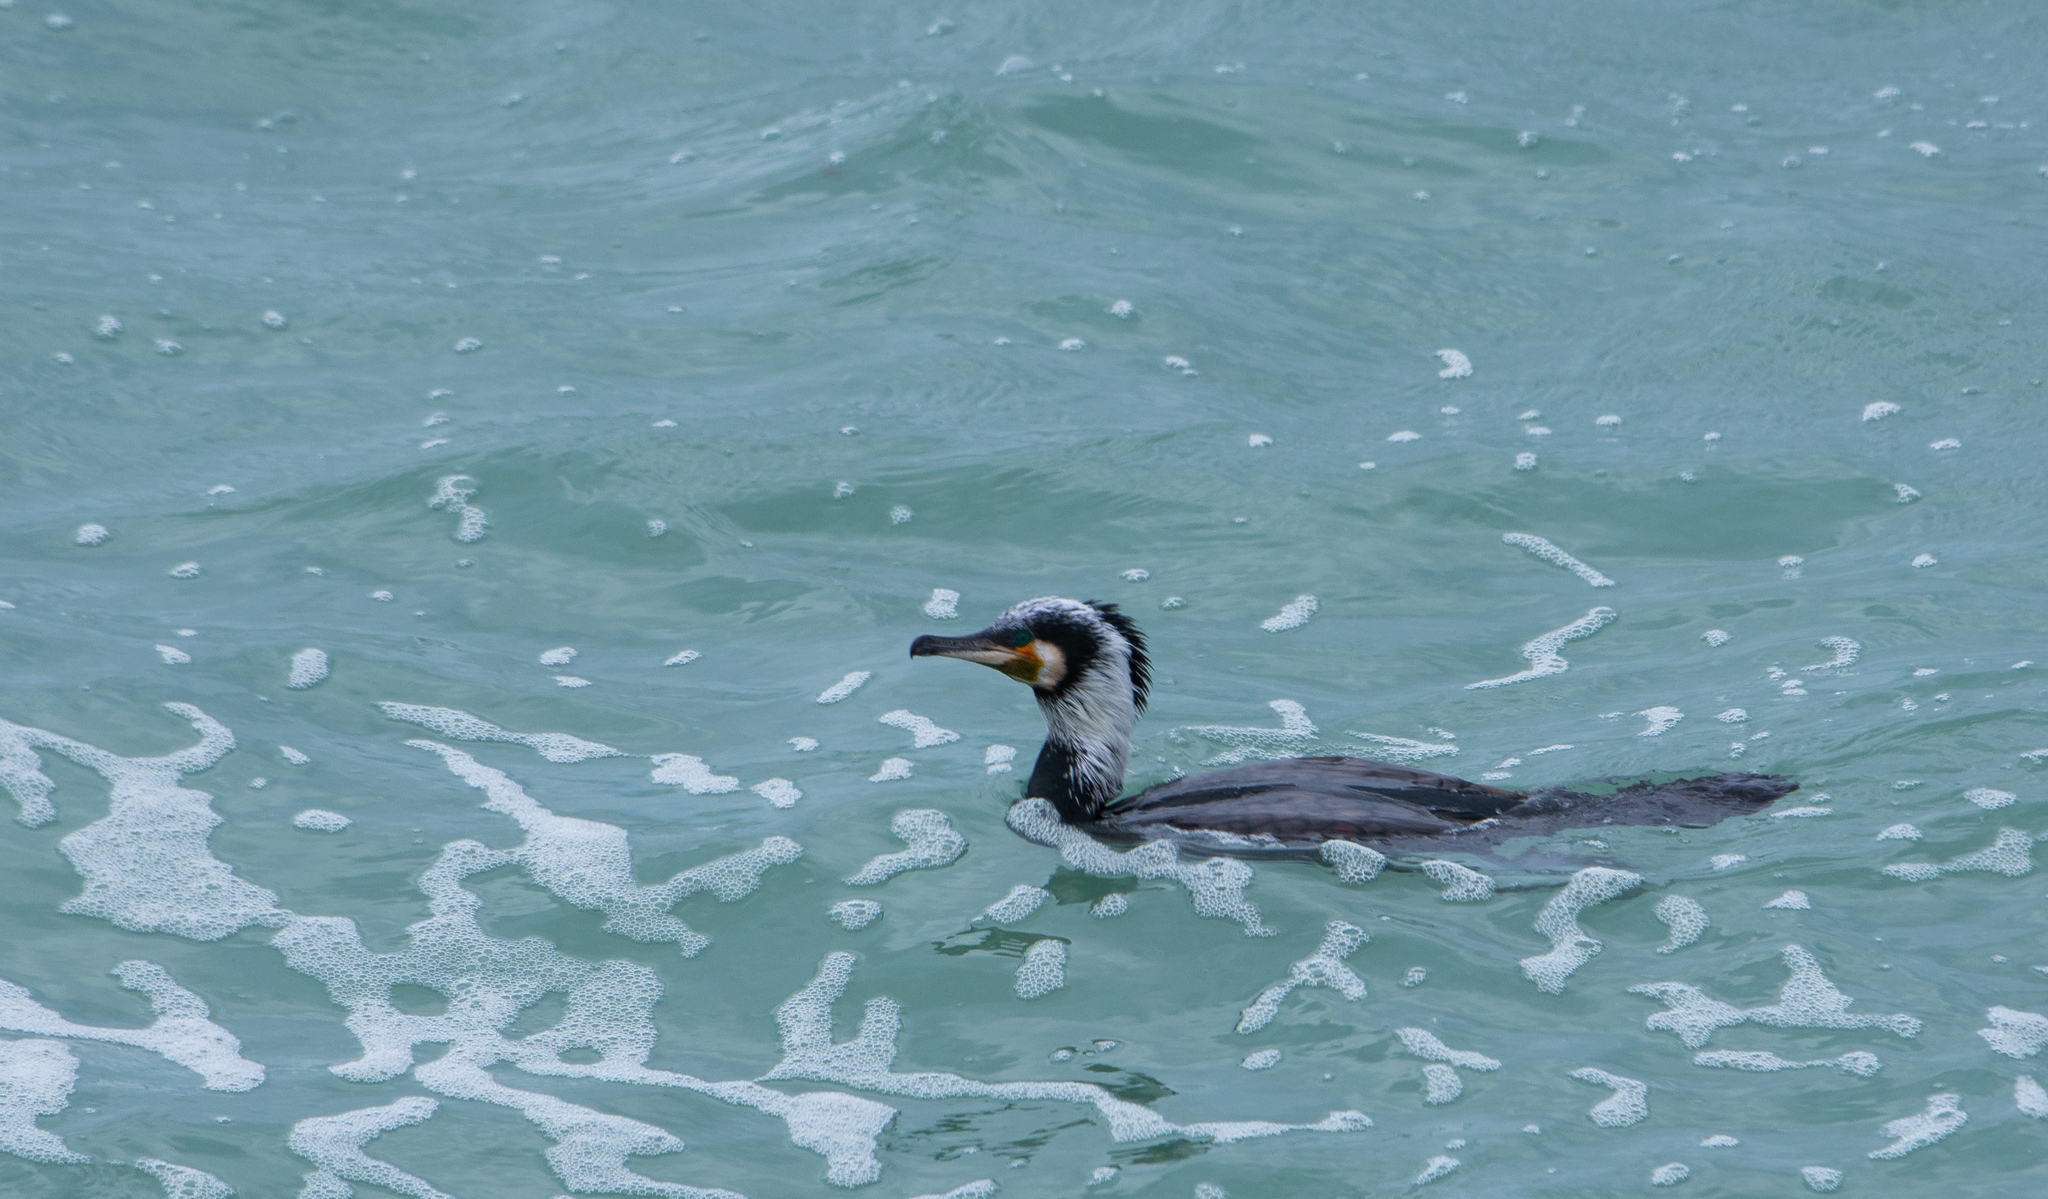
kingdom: Animalia
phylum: Chordata
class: Aves
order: Suliformes
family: Phalacrocoracidae
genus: Phalacrocorax
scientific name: Phalacrocorax carbo
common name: Great cormorant
